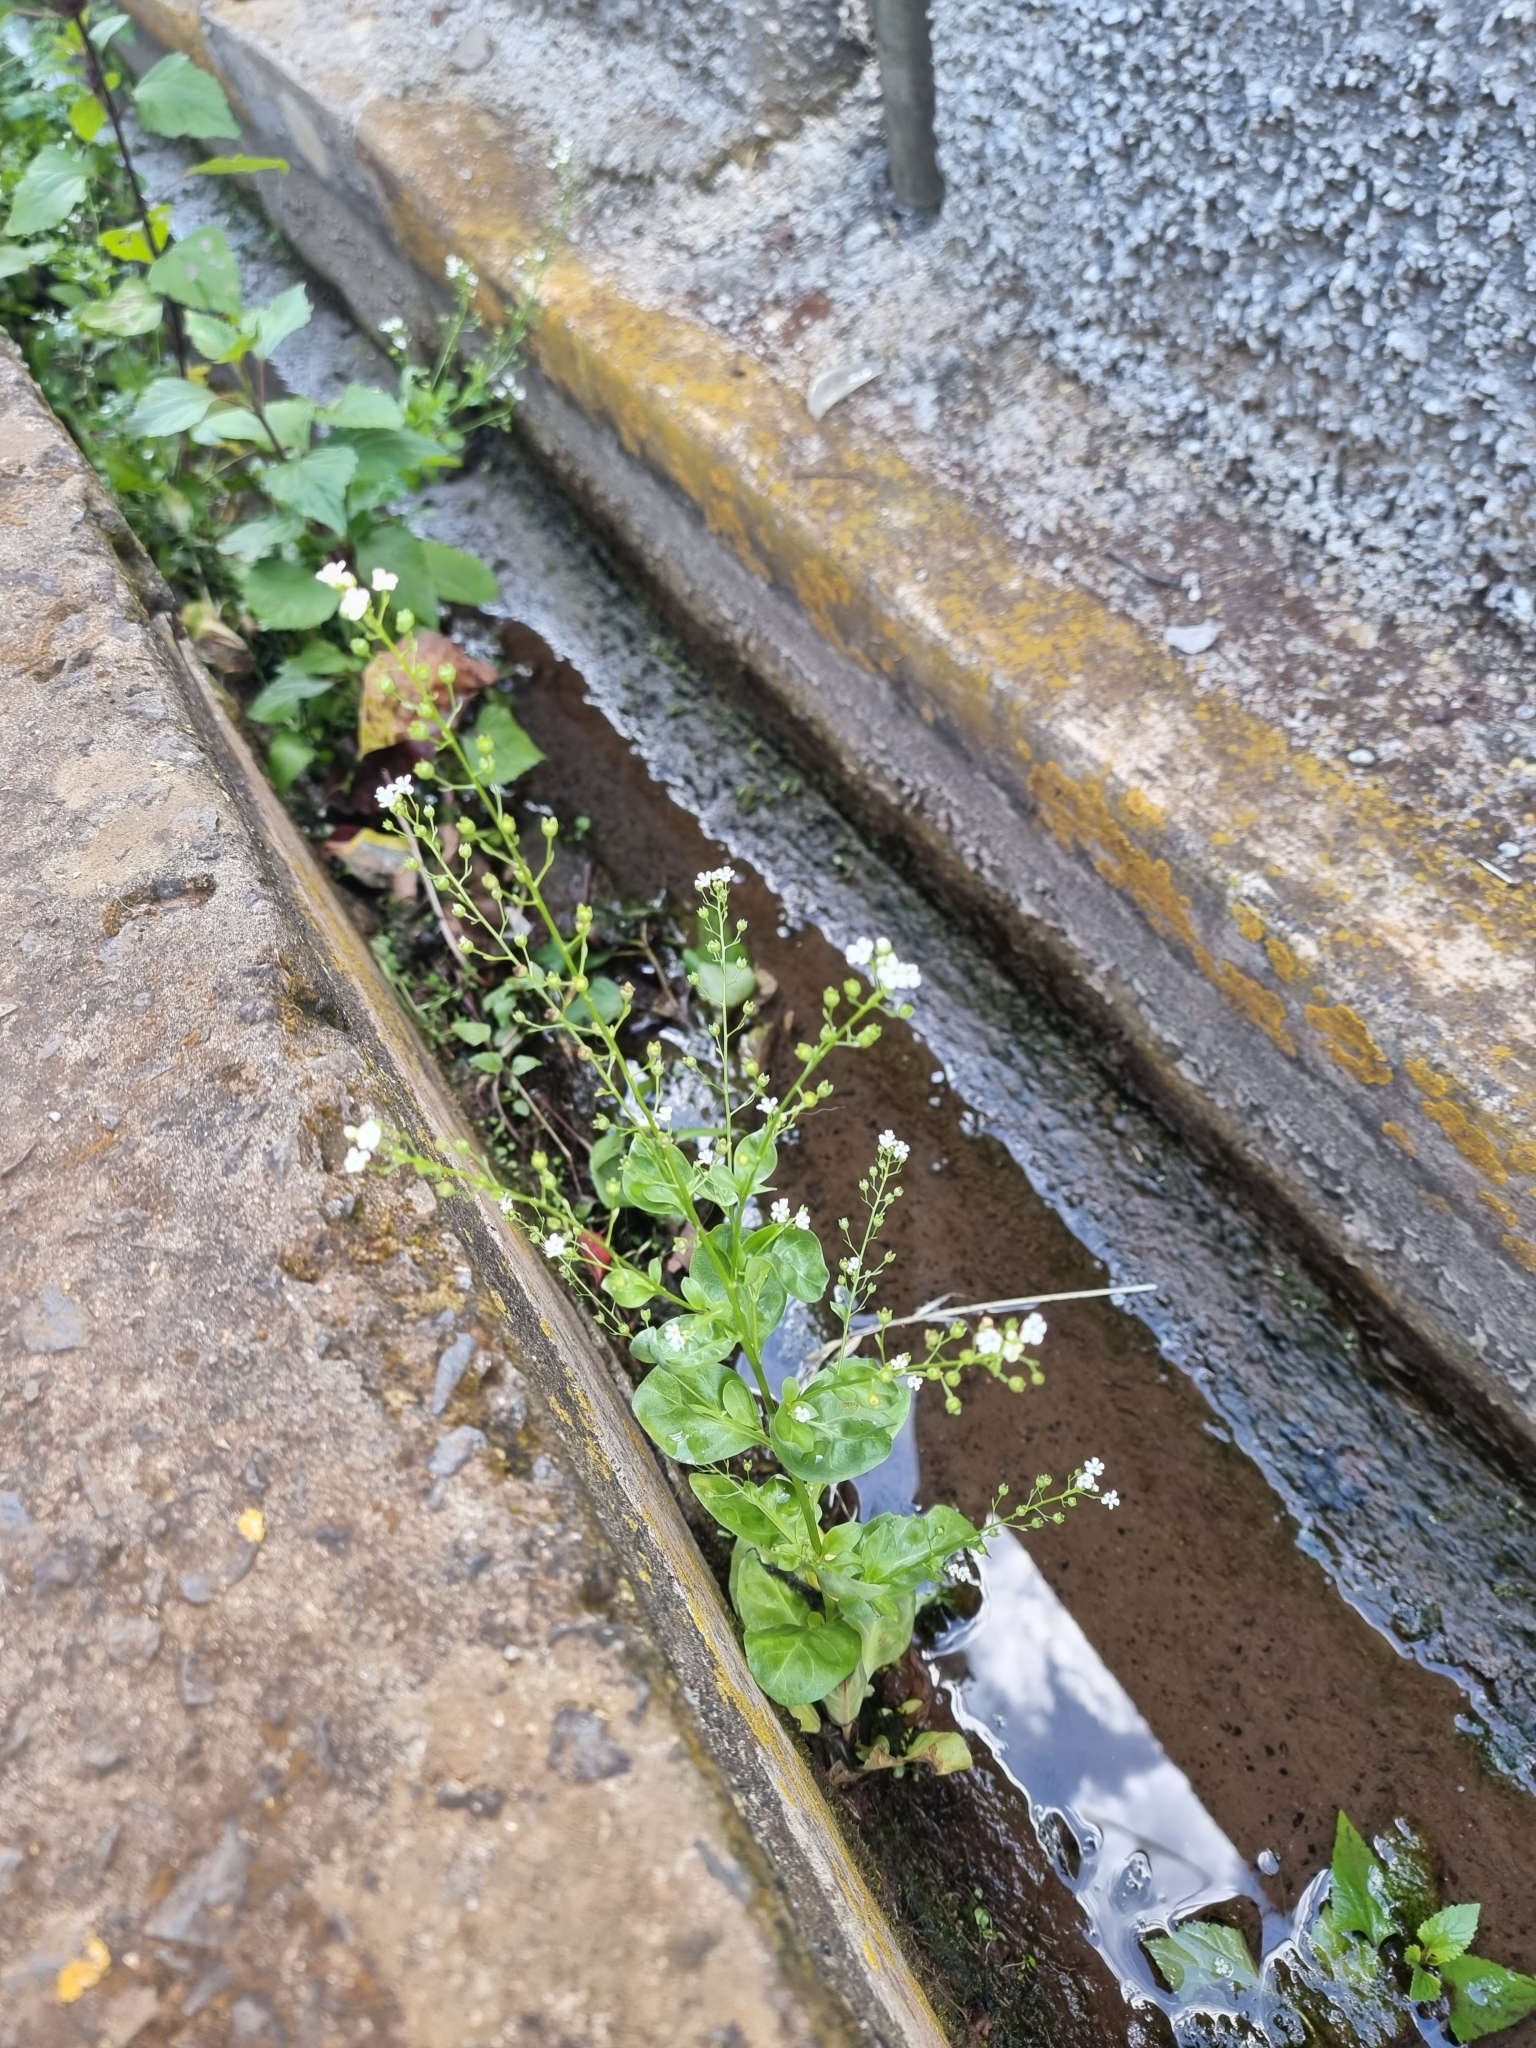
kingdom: Plantae
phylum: Tracheophyta
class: Magnoliopsida
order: Ericales
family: Primulaceae
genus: Samolus
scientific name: Samolus valerandi
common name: Brookweed
